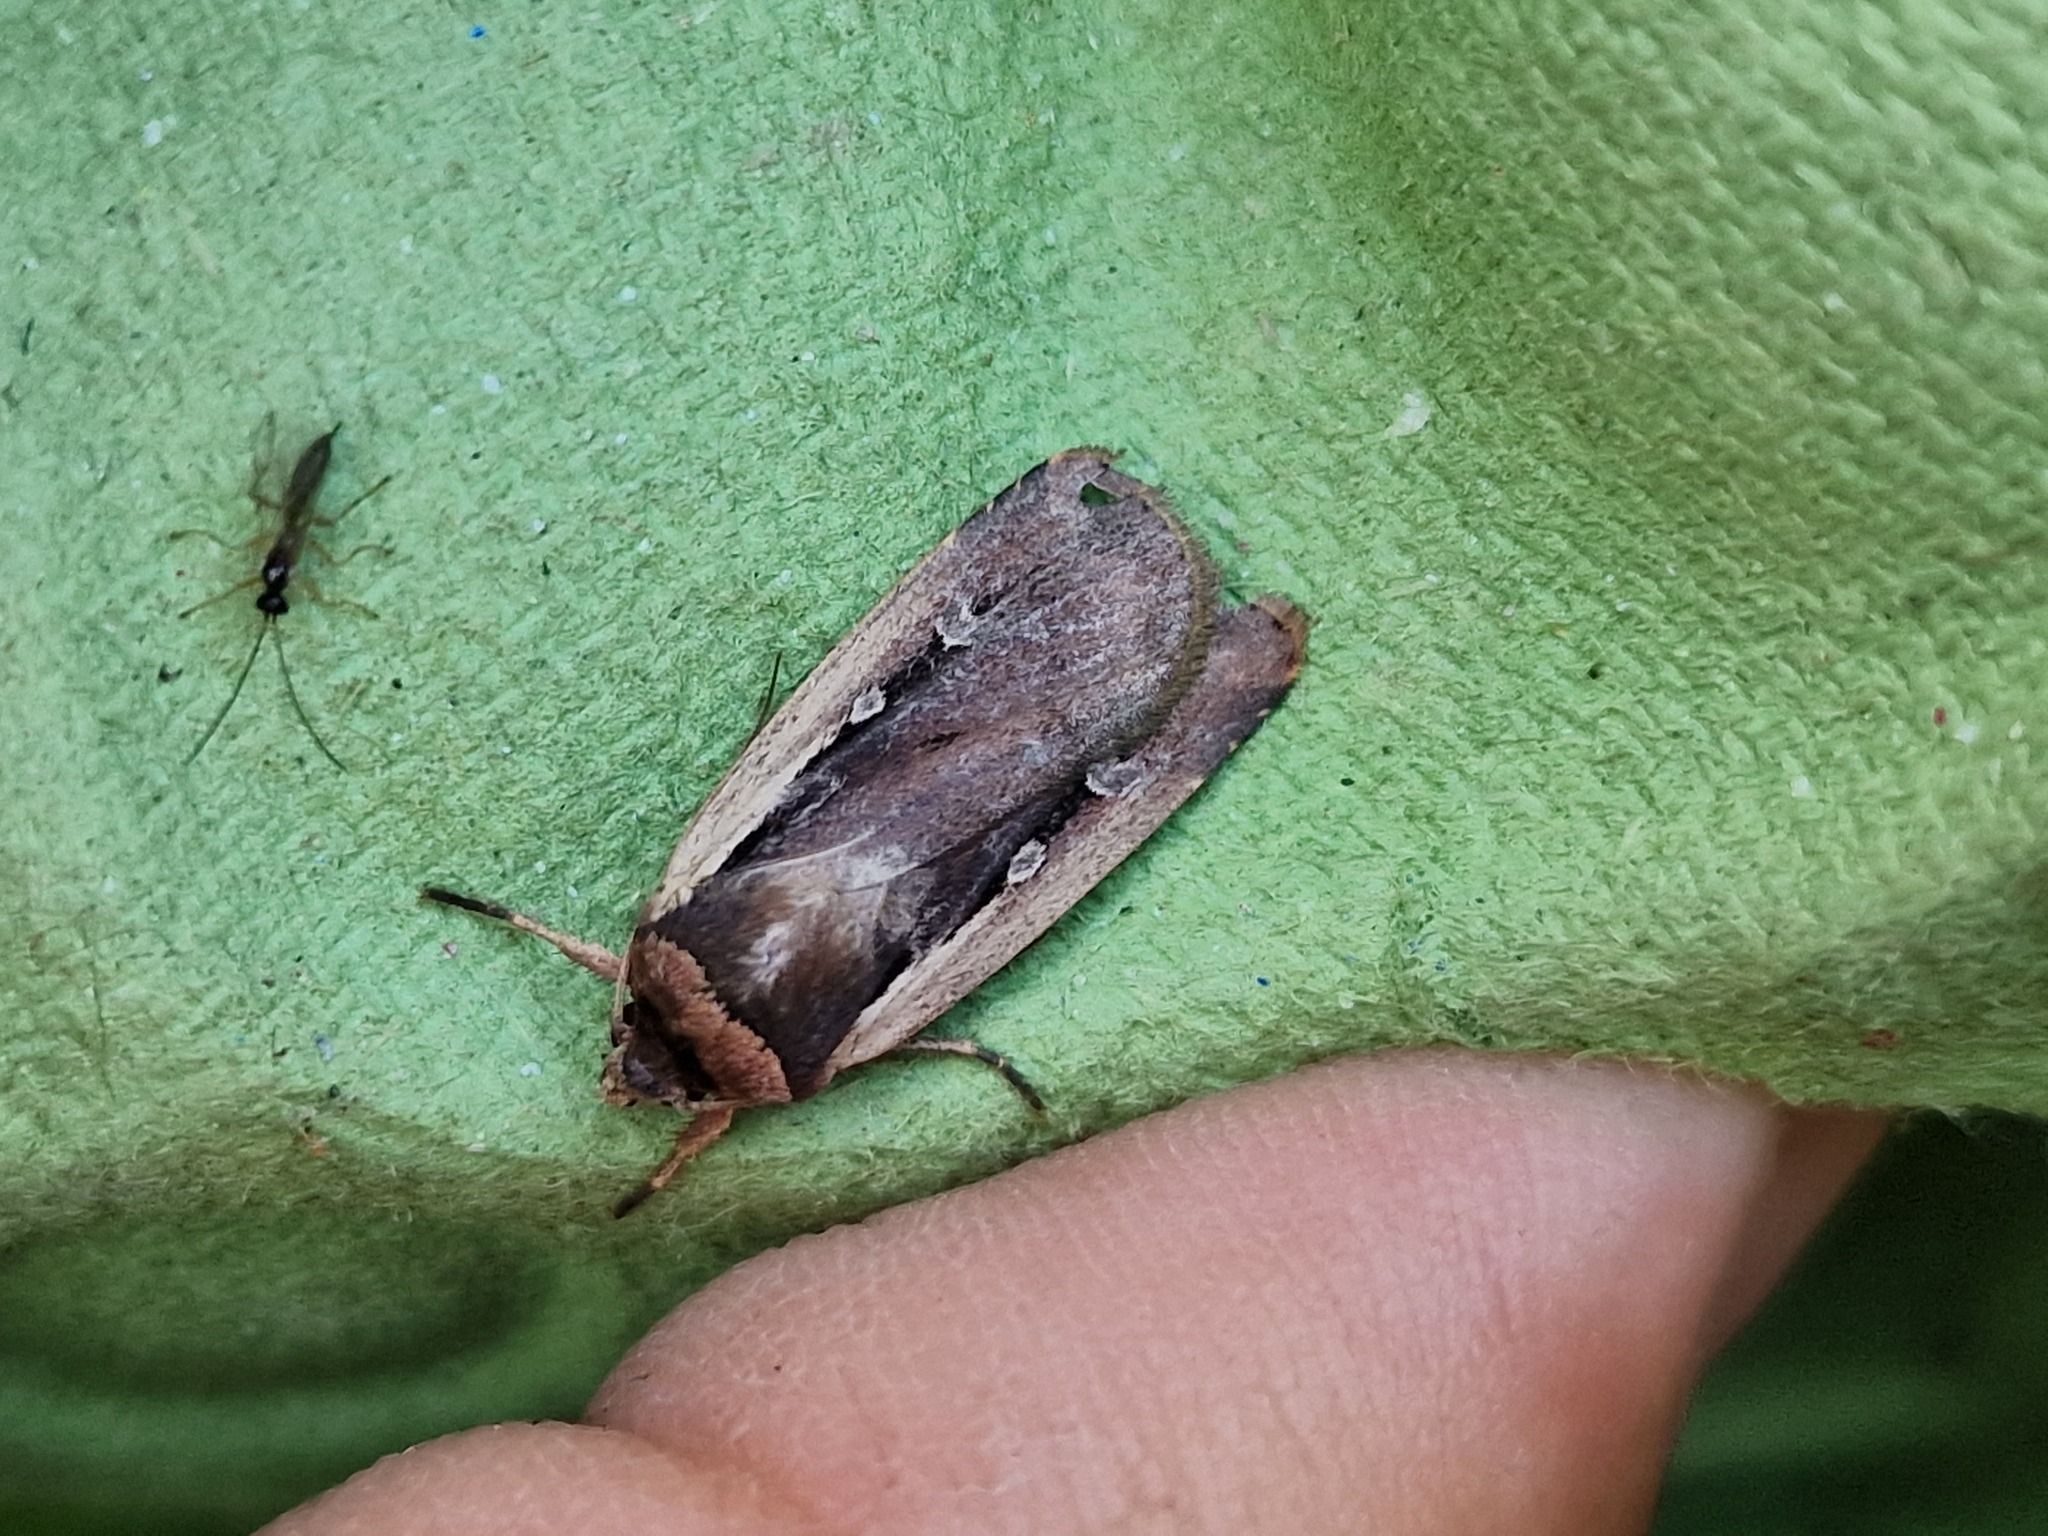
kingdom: Animalia
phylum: Arthropoda
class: Insecta
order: Lepidoptera
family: Noctuidae
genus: Ochropleura
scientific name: Ochropleura plecta
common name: Flame shoulder
